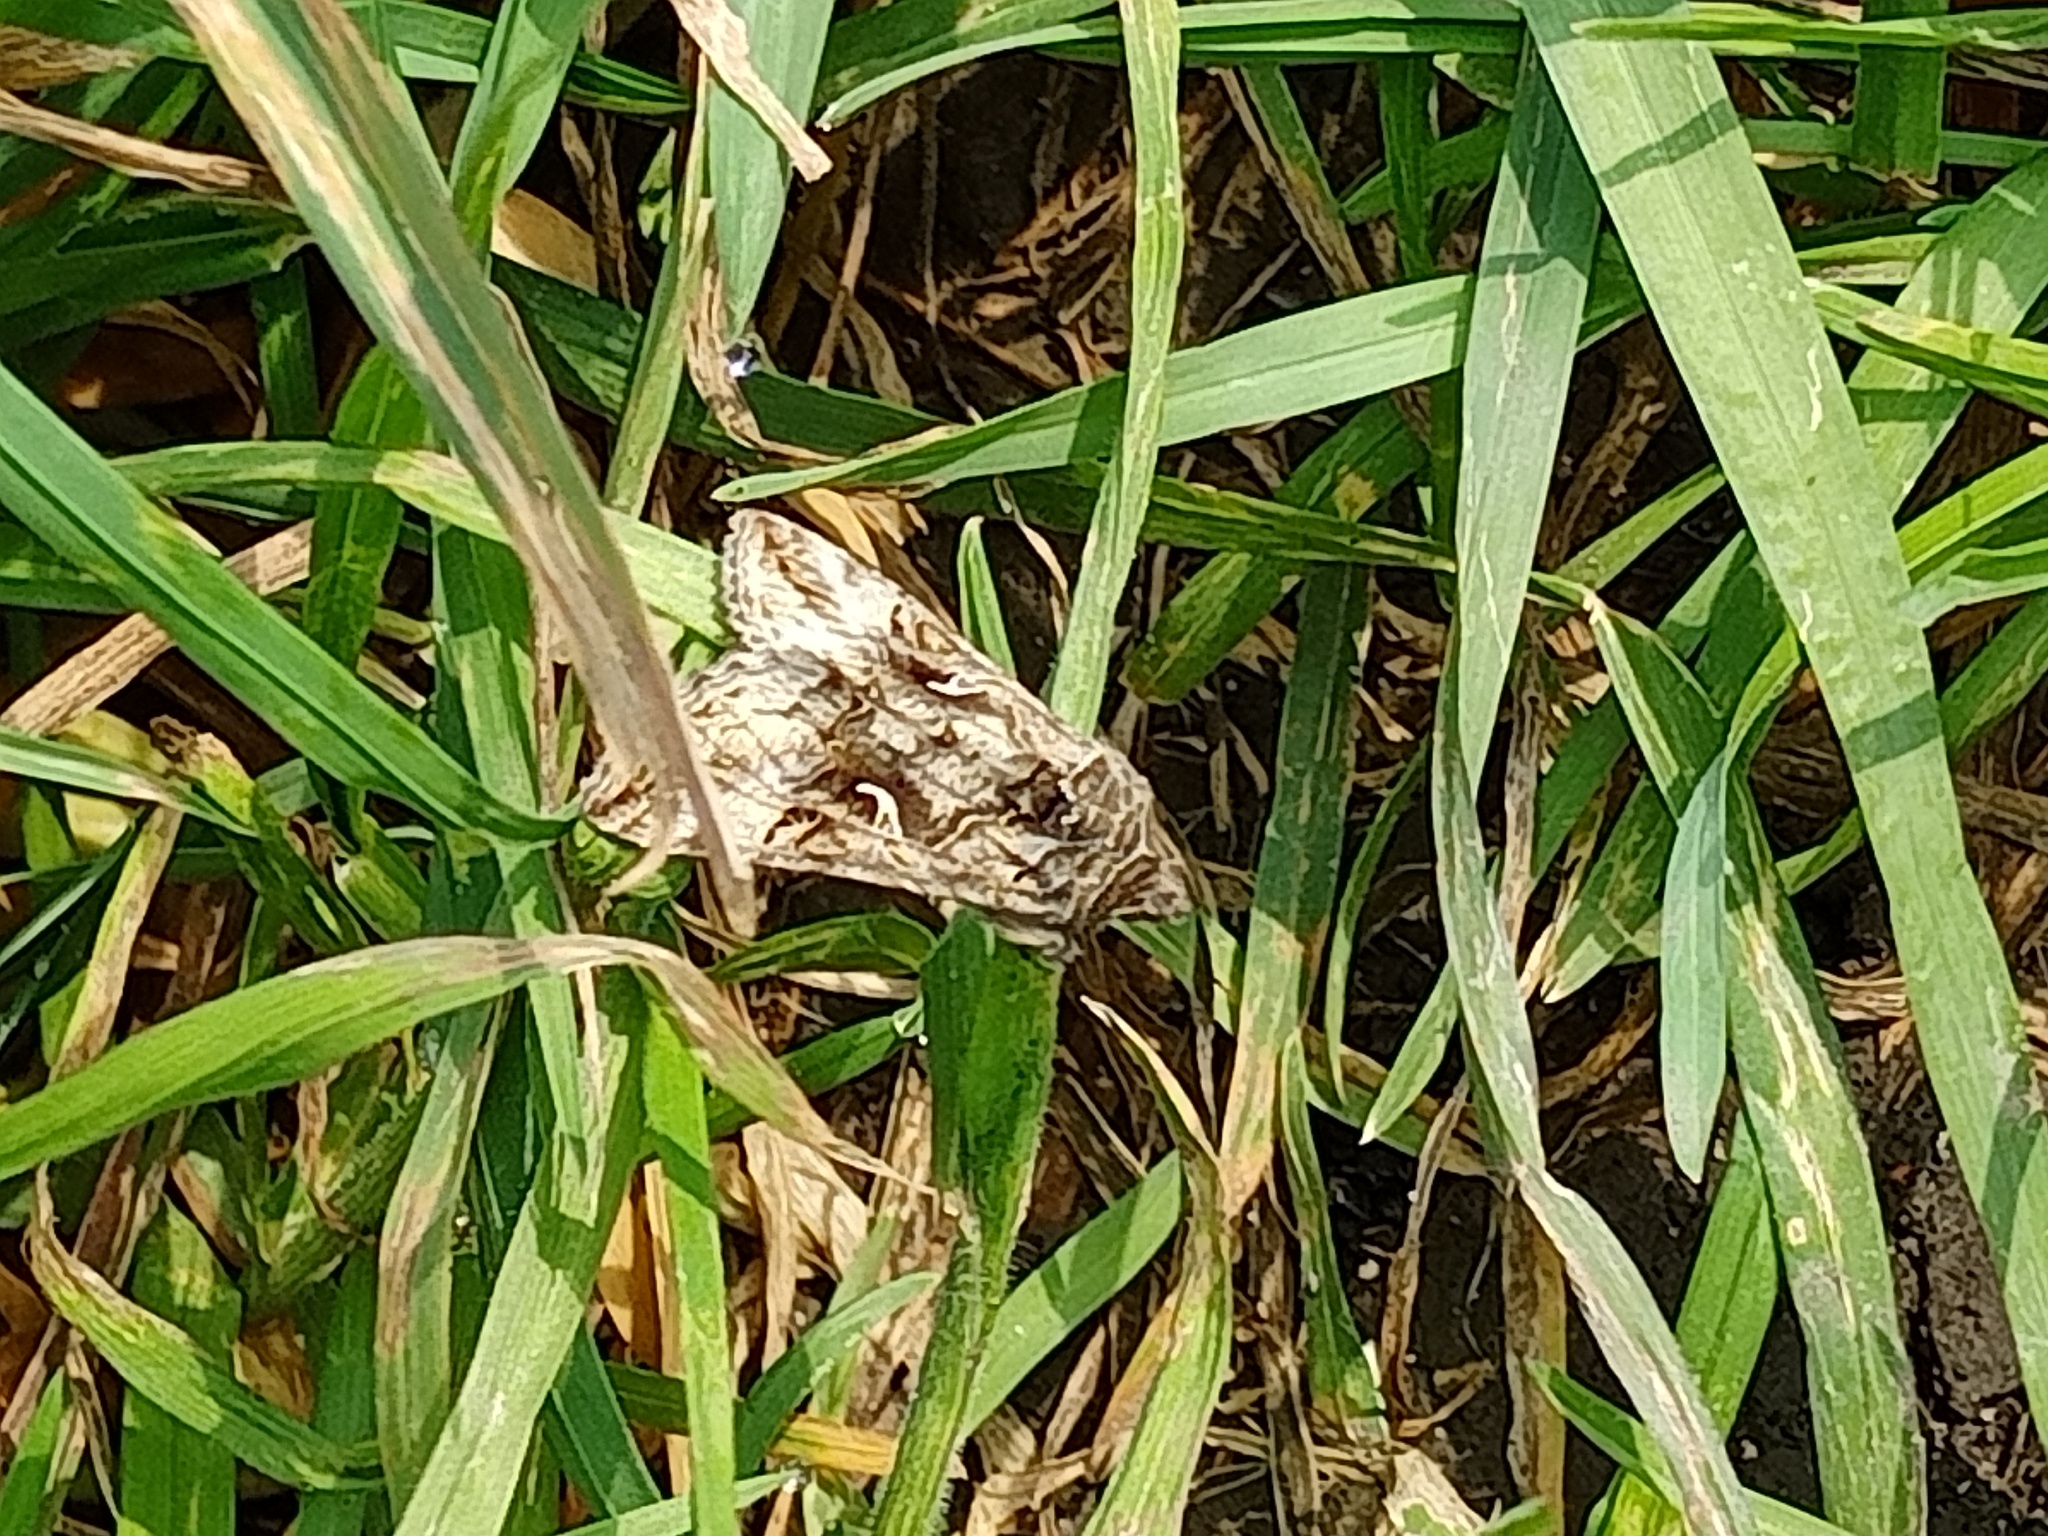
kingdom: Animalia
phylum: Arthropoda
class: Insecta
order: Lepidoptera
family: Noctuidae
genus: Autographa
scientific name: Autographa gamma
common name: Silver y
